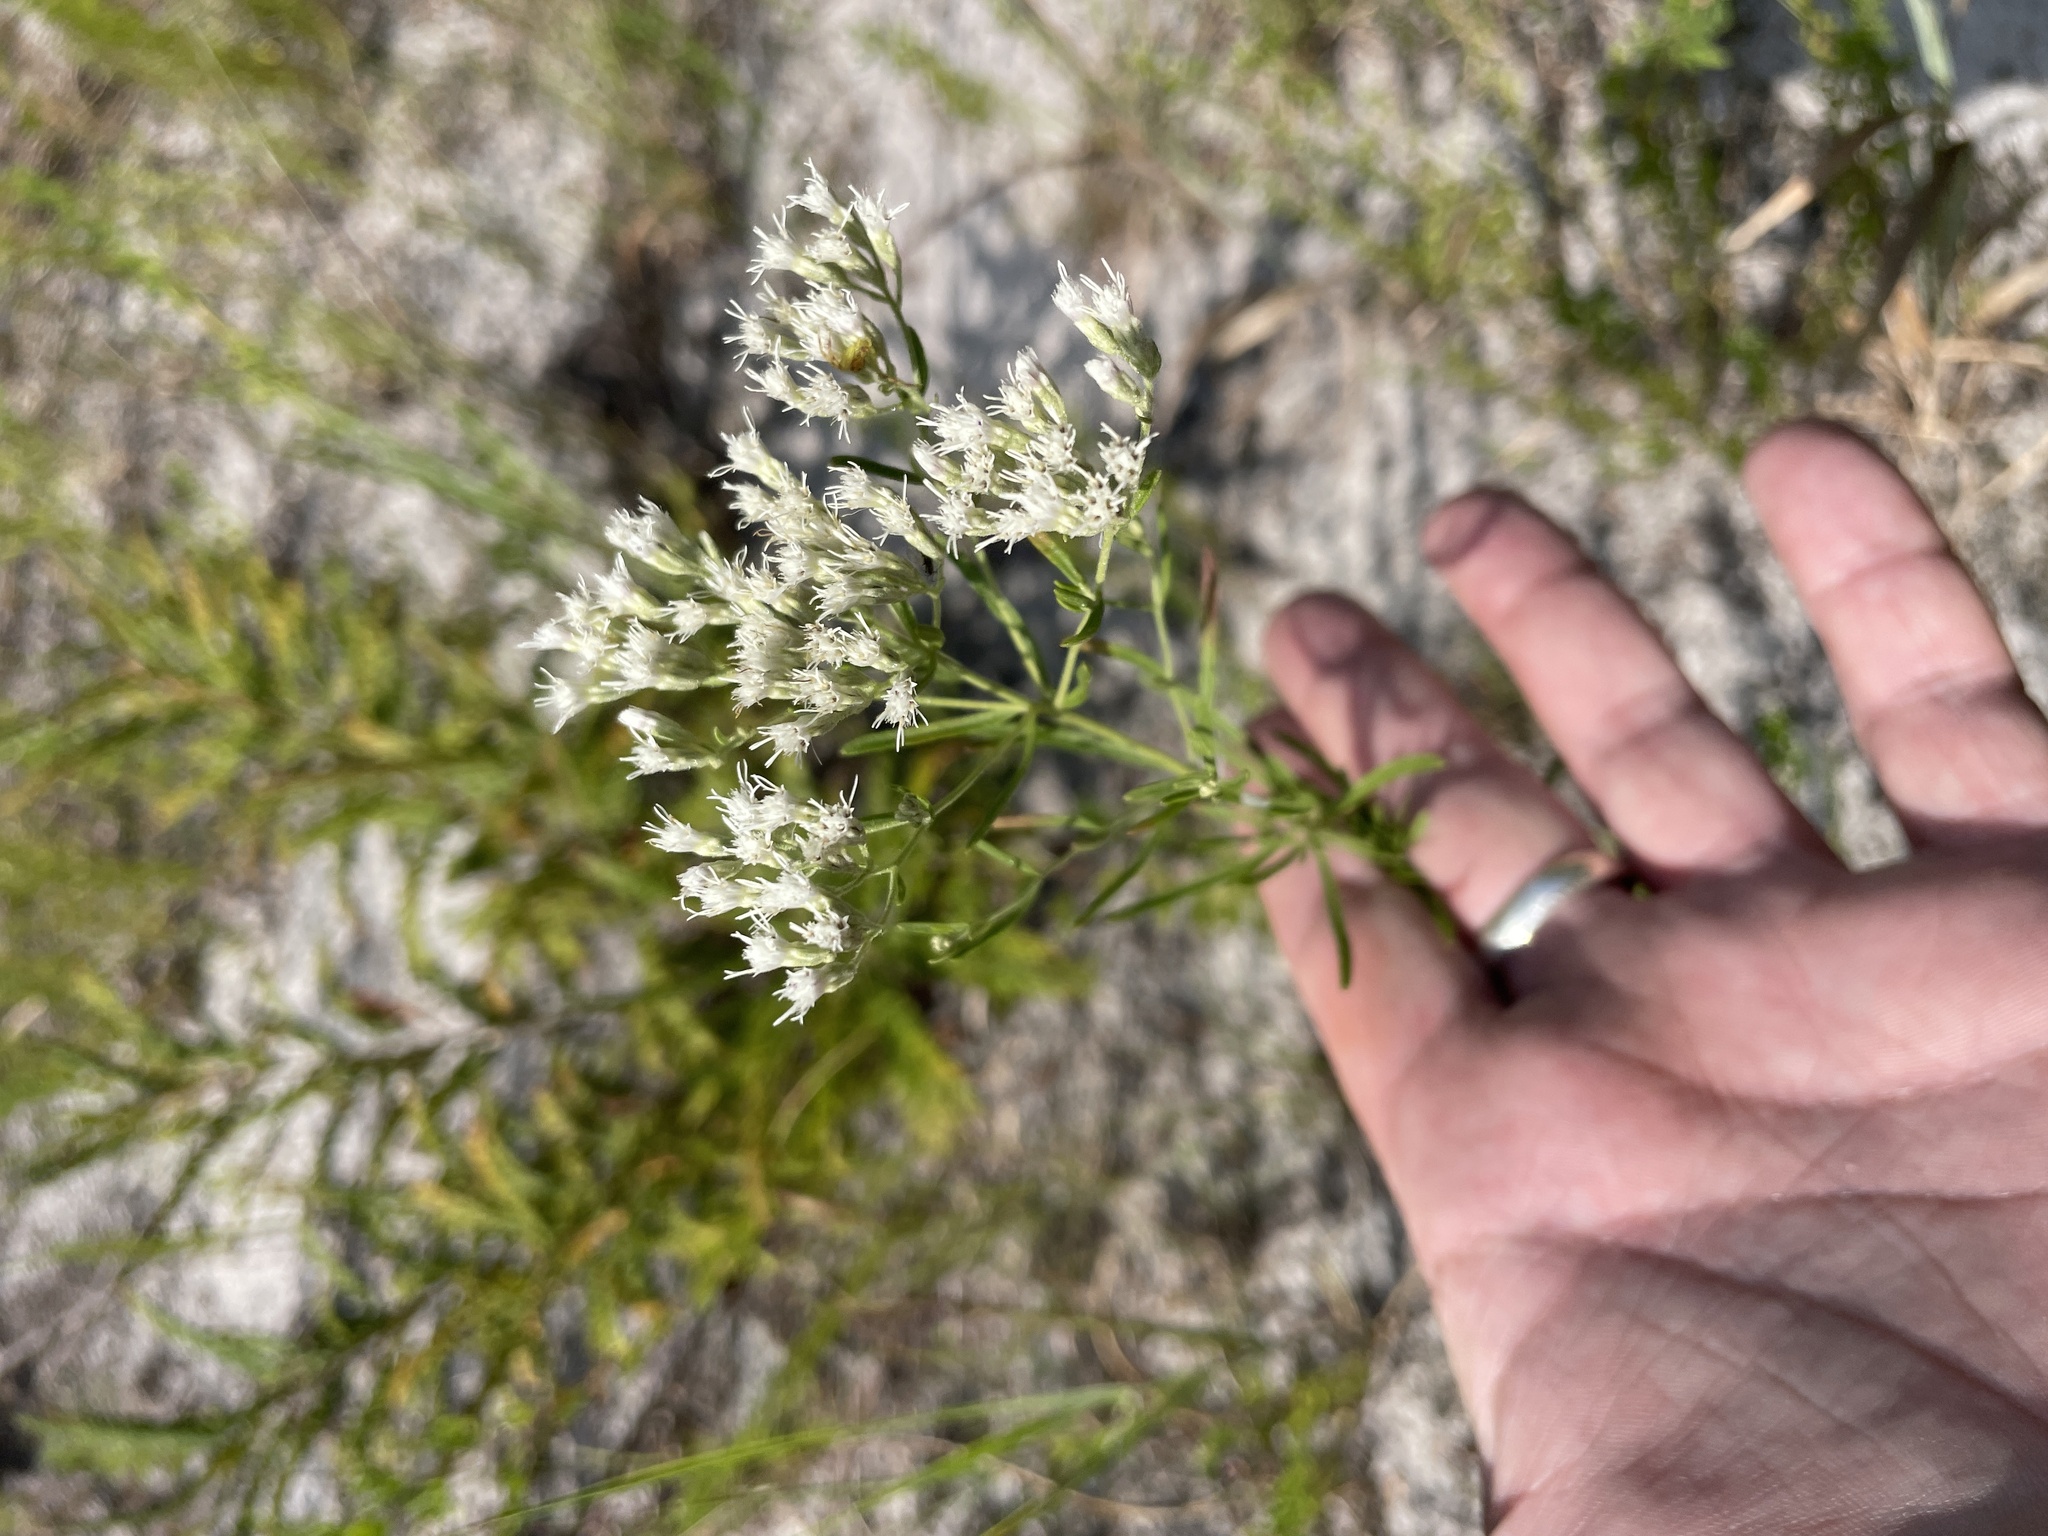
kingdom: Plantae
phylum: Tracheophyta
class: Magnoliopsida
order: Asterales
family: Asteraceae
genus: Eupatorium
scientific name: Eupatorium hyssopifolium
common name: Hyssop-leaf thoroughwort
